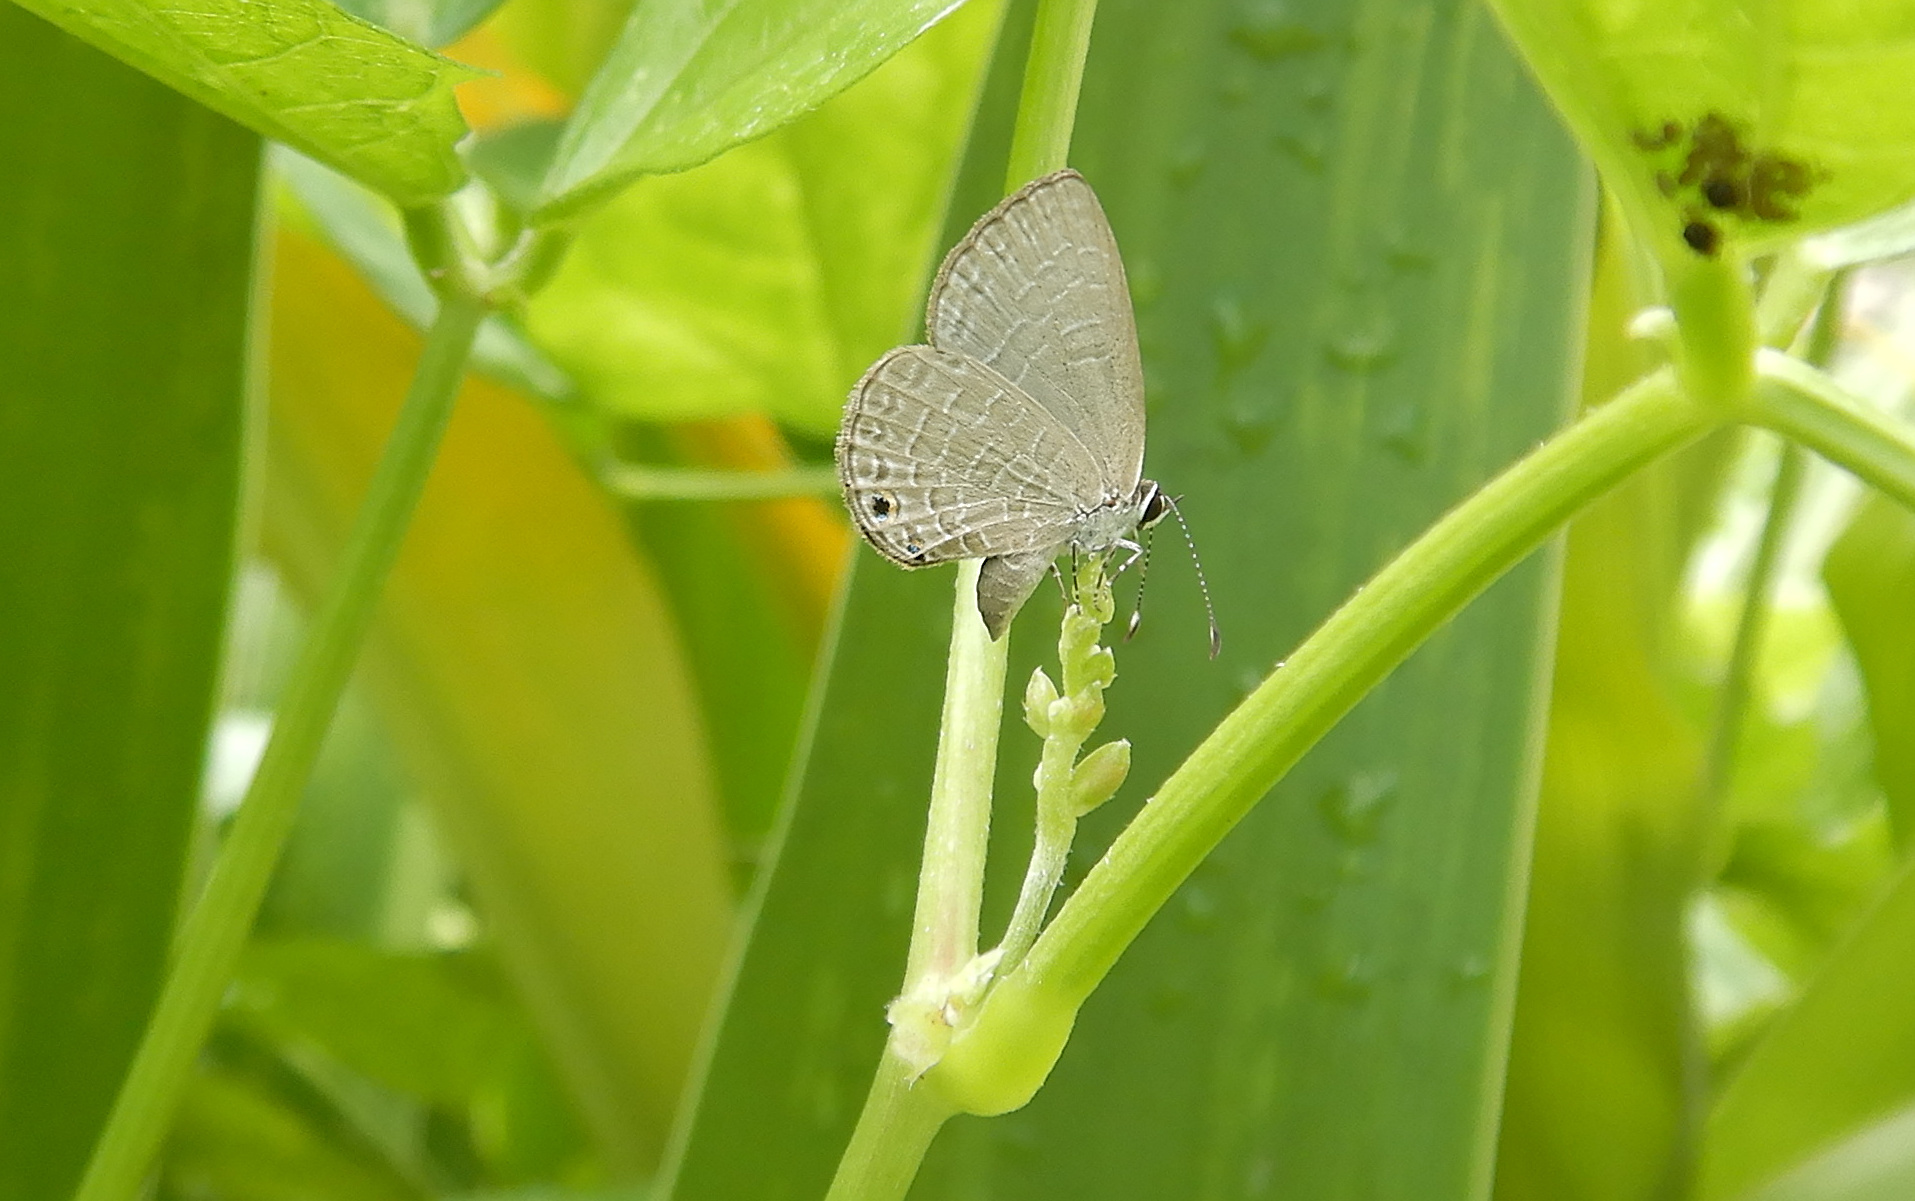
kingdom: Animalia
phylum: Arthropoda
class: Insecta
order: Lepidoptera
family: Lycaenidae
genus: Jamides
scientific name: Jamides walkeri
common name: Cook islands blue
